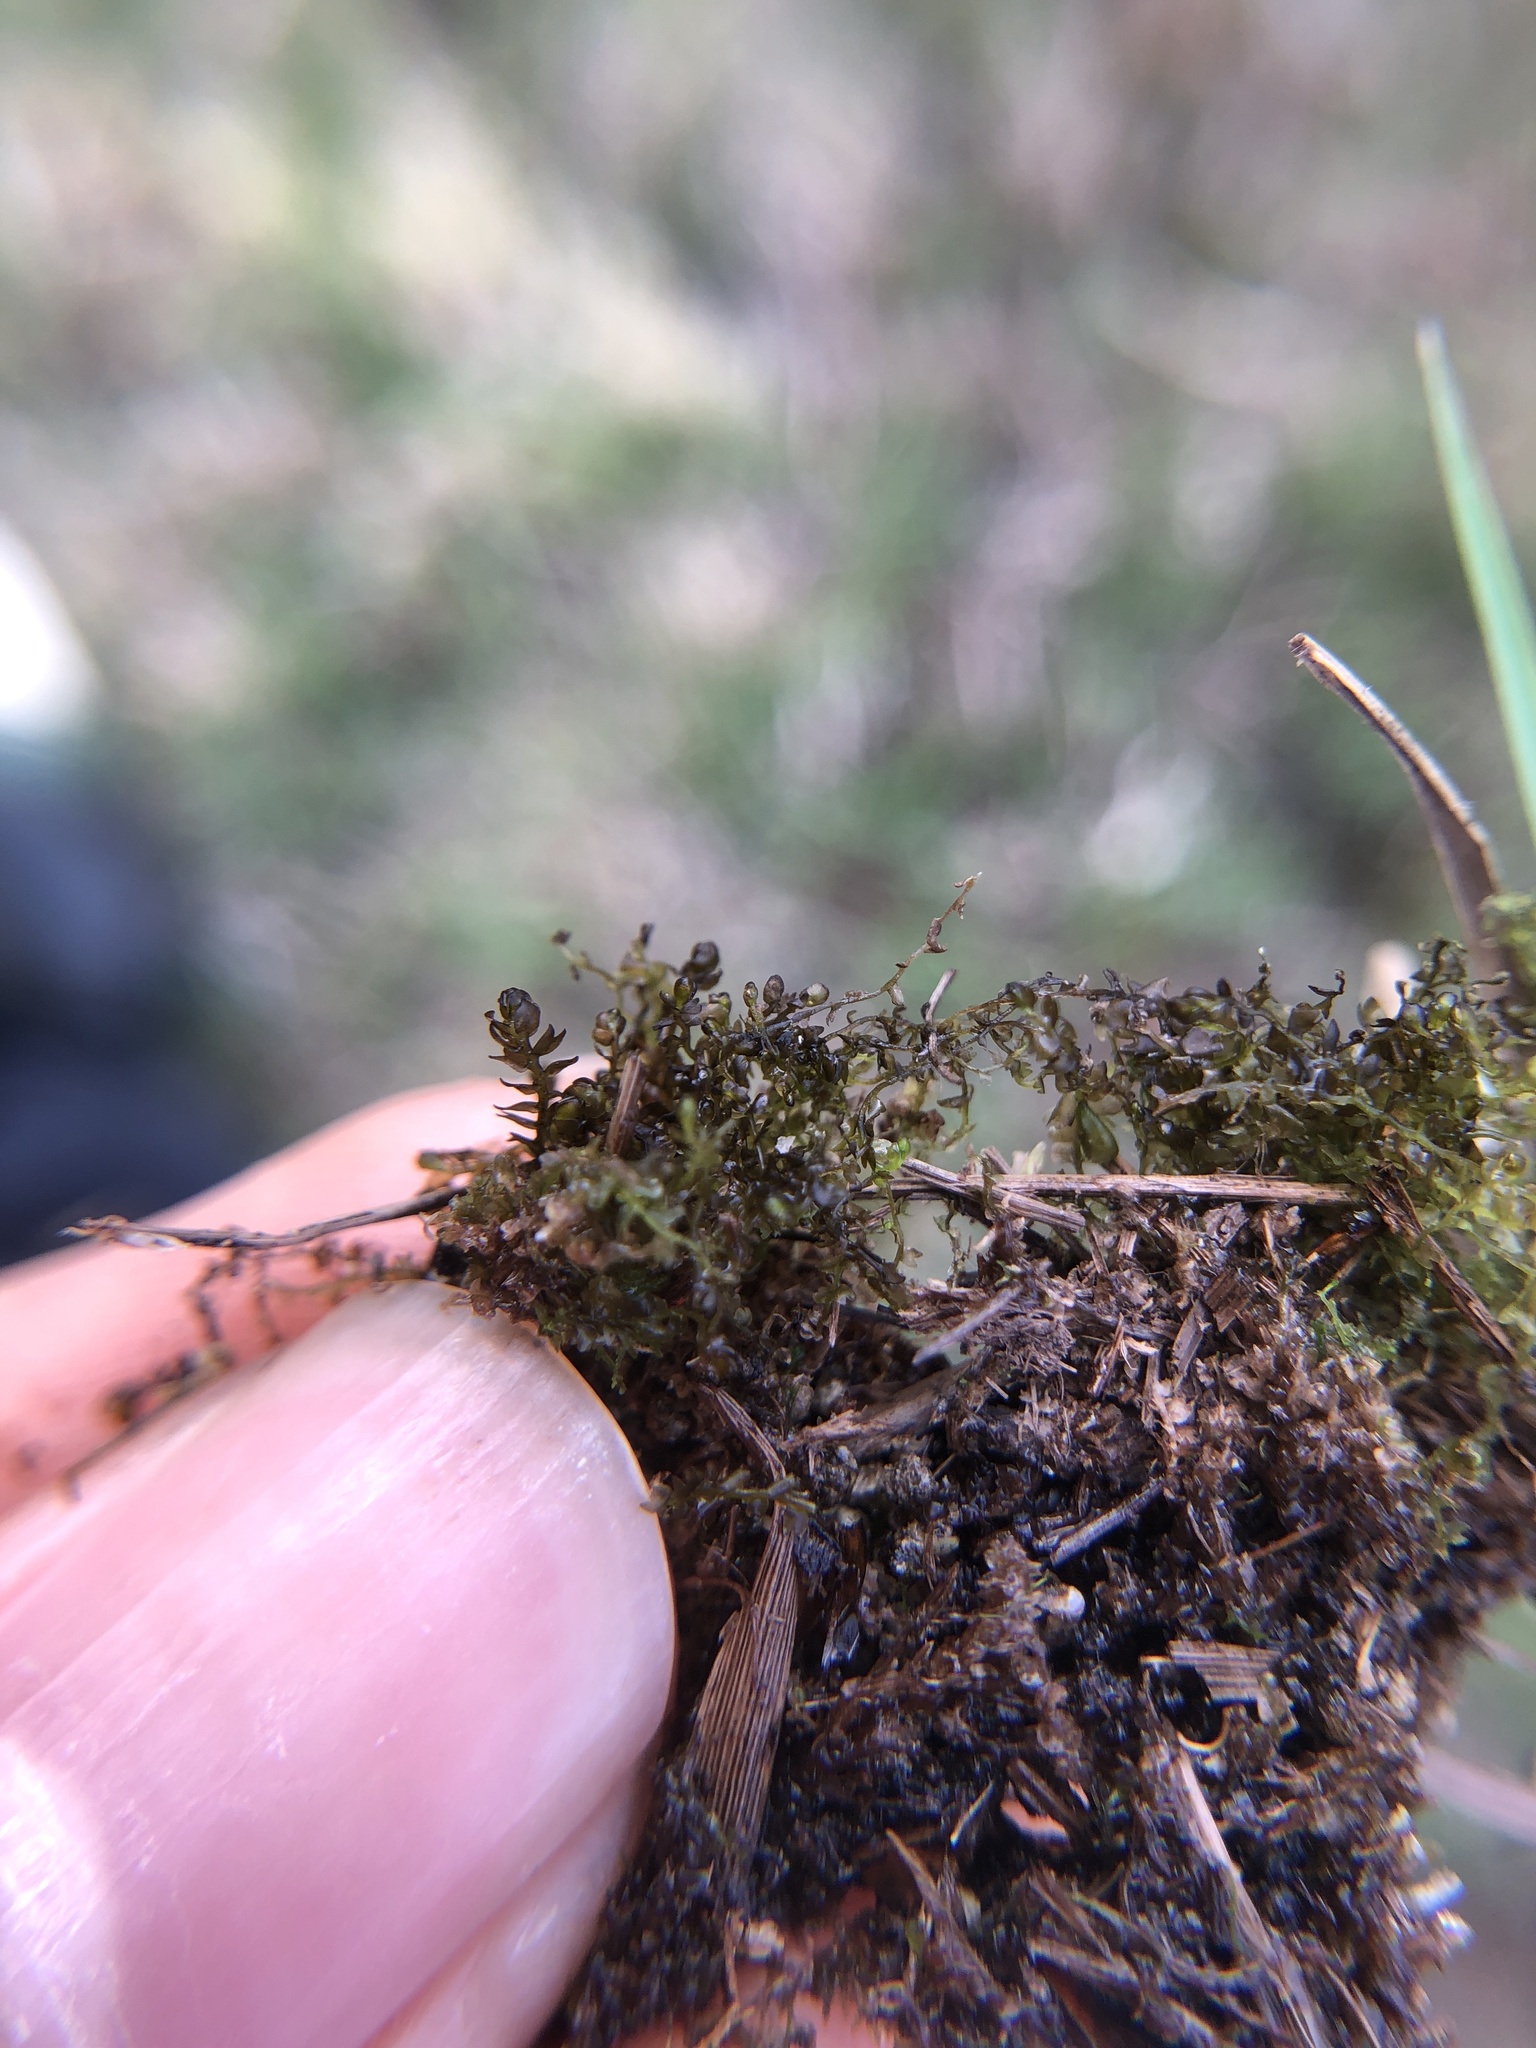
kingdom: Plantae
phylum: Marchantiophyta
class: Jungermanniopsida
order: Jungermanniales
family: Anastrophyllaceae
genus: Gymnocolea
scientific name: Gymnocolea inflata
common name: Inflated notchwort
